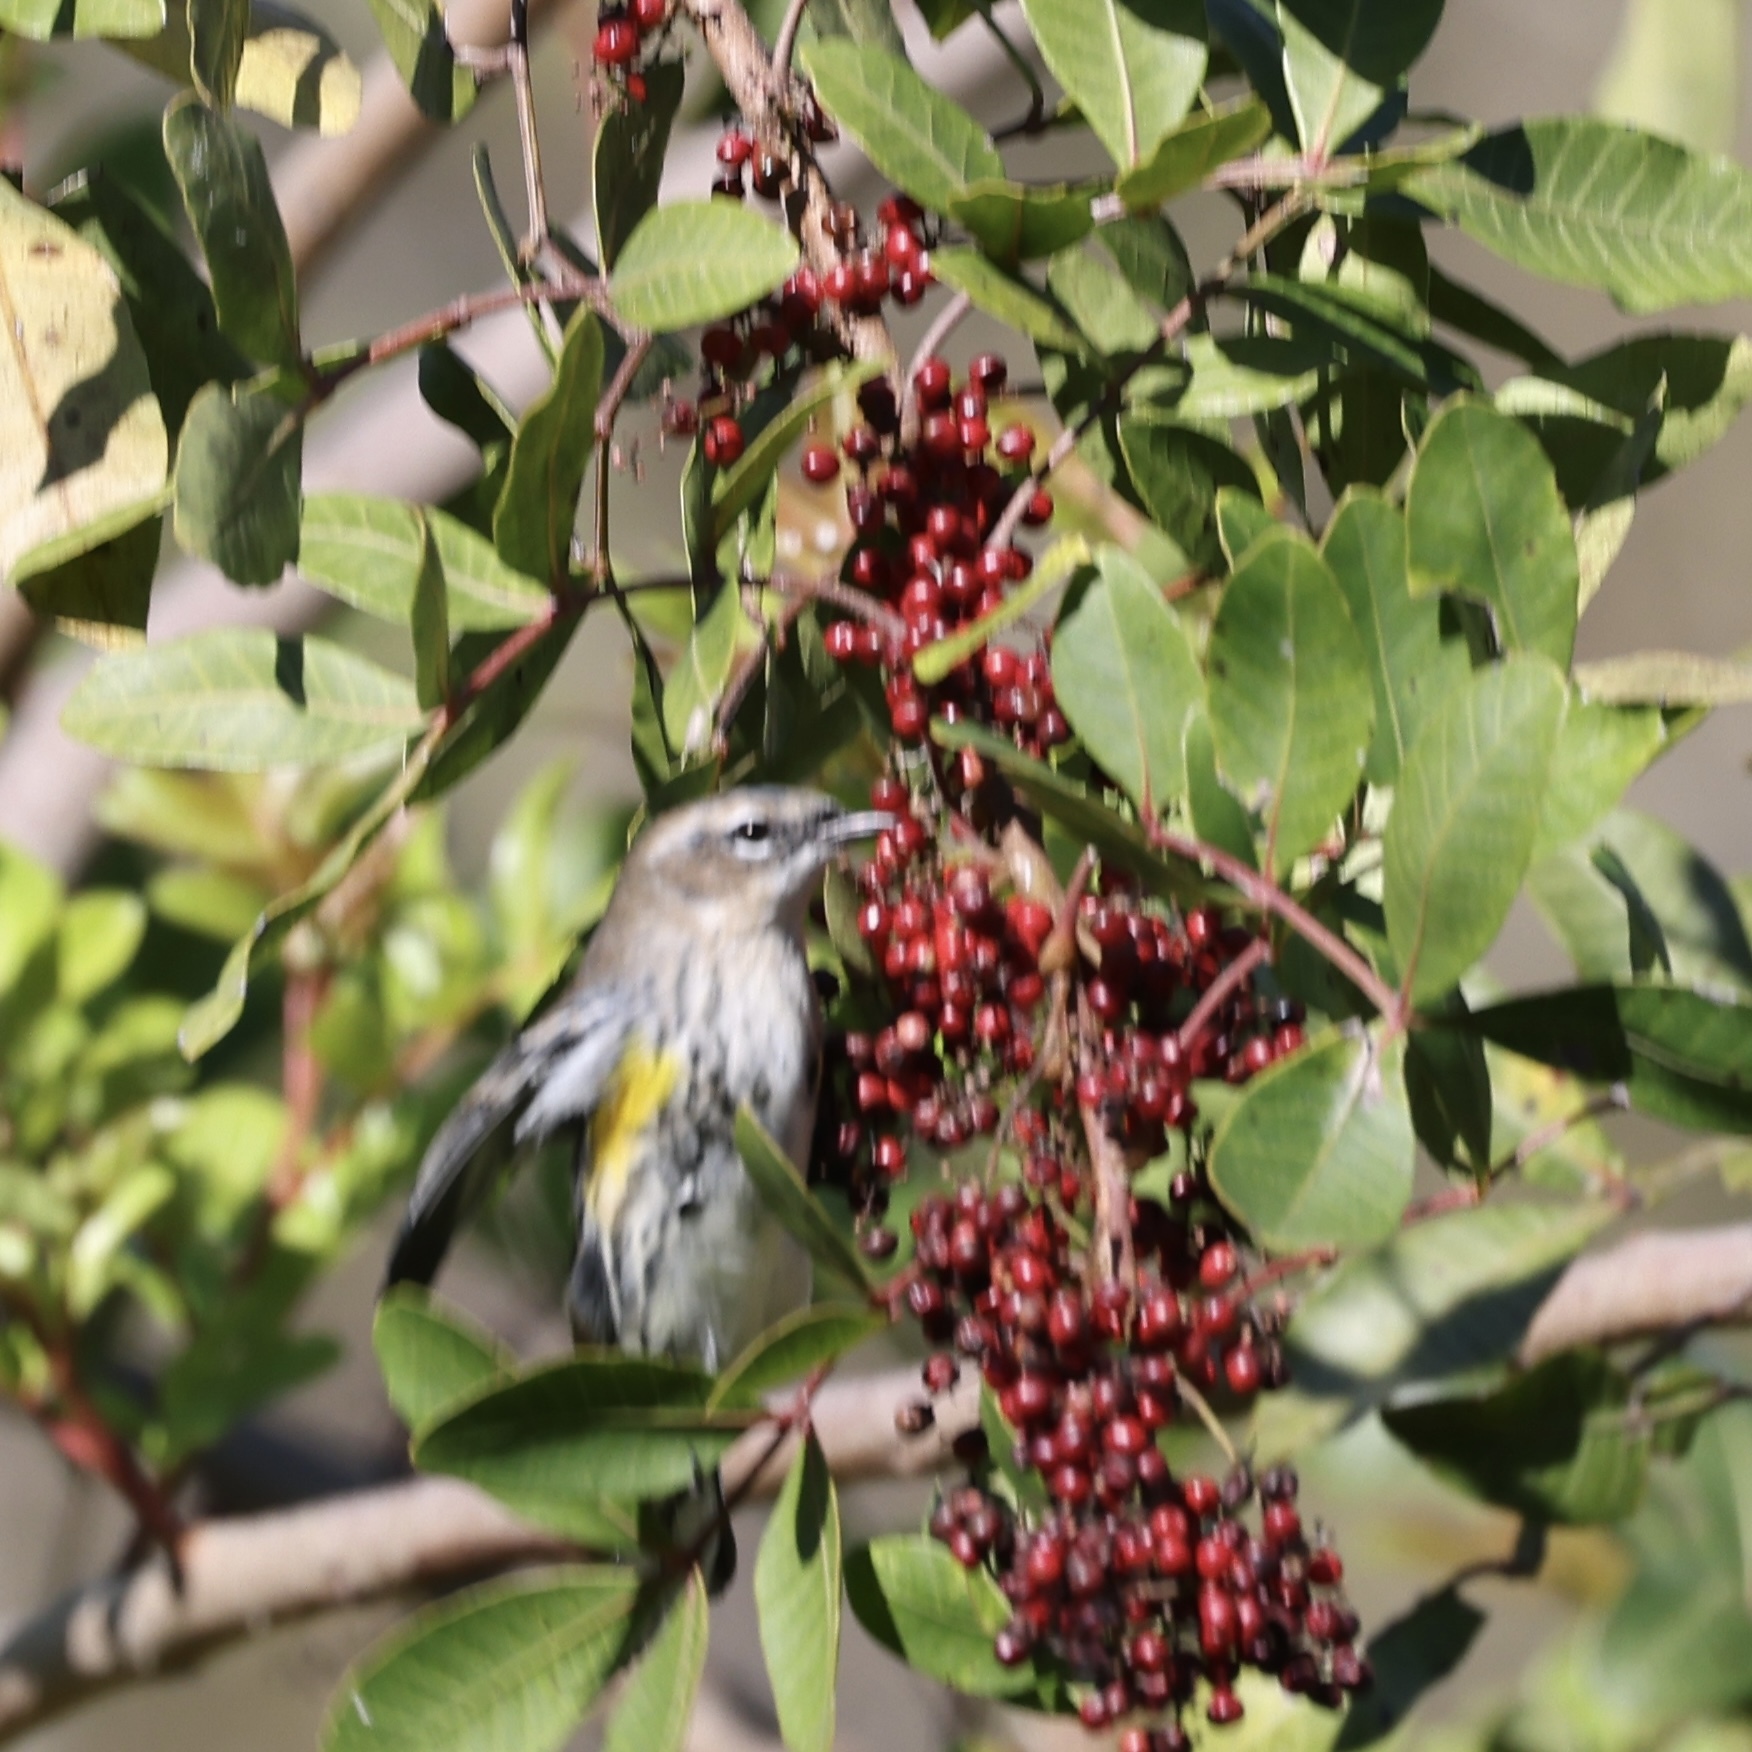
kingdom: Animalia
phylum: Chordata
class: Aves
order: Passeriformes
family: Parulidae
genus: Setophaga
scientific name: Setophaga coronata
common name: Myrtle warbler
